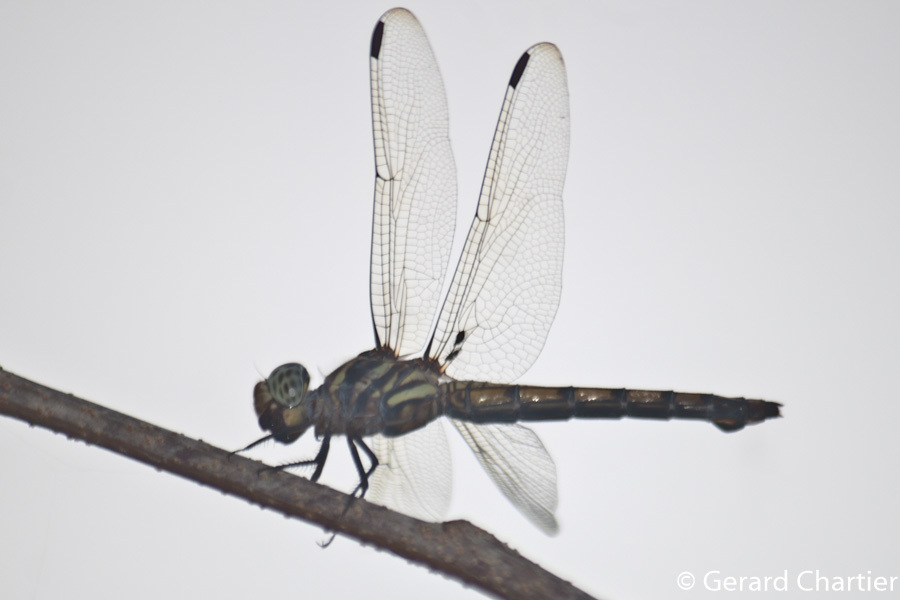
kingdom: Animalia
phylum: Arthropoda
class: Insecta
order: Odonata
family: Libellulidae
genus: Potamarcha
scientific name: Potamarcha congener
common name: Blue chaser
